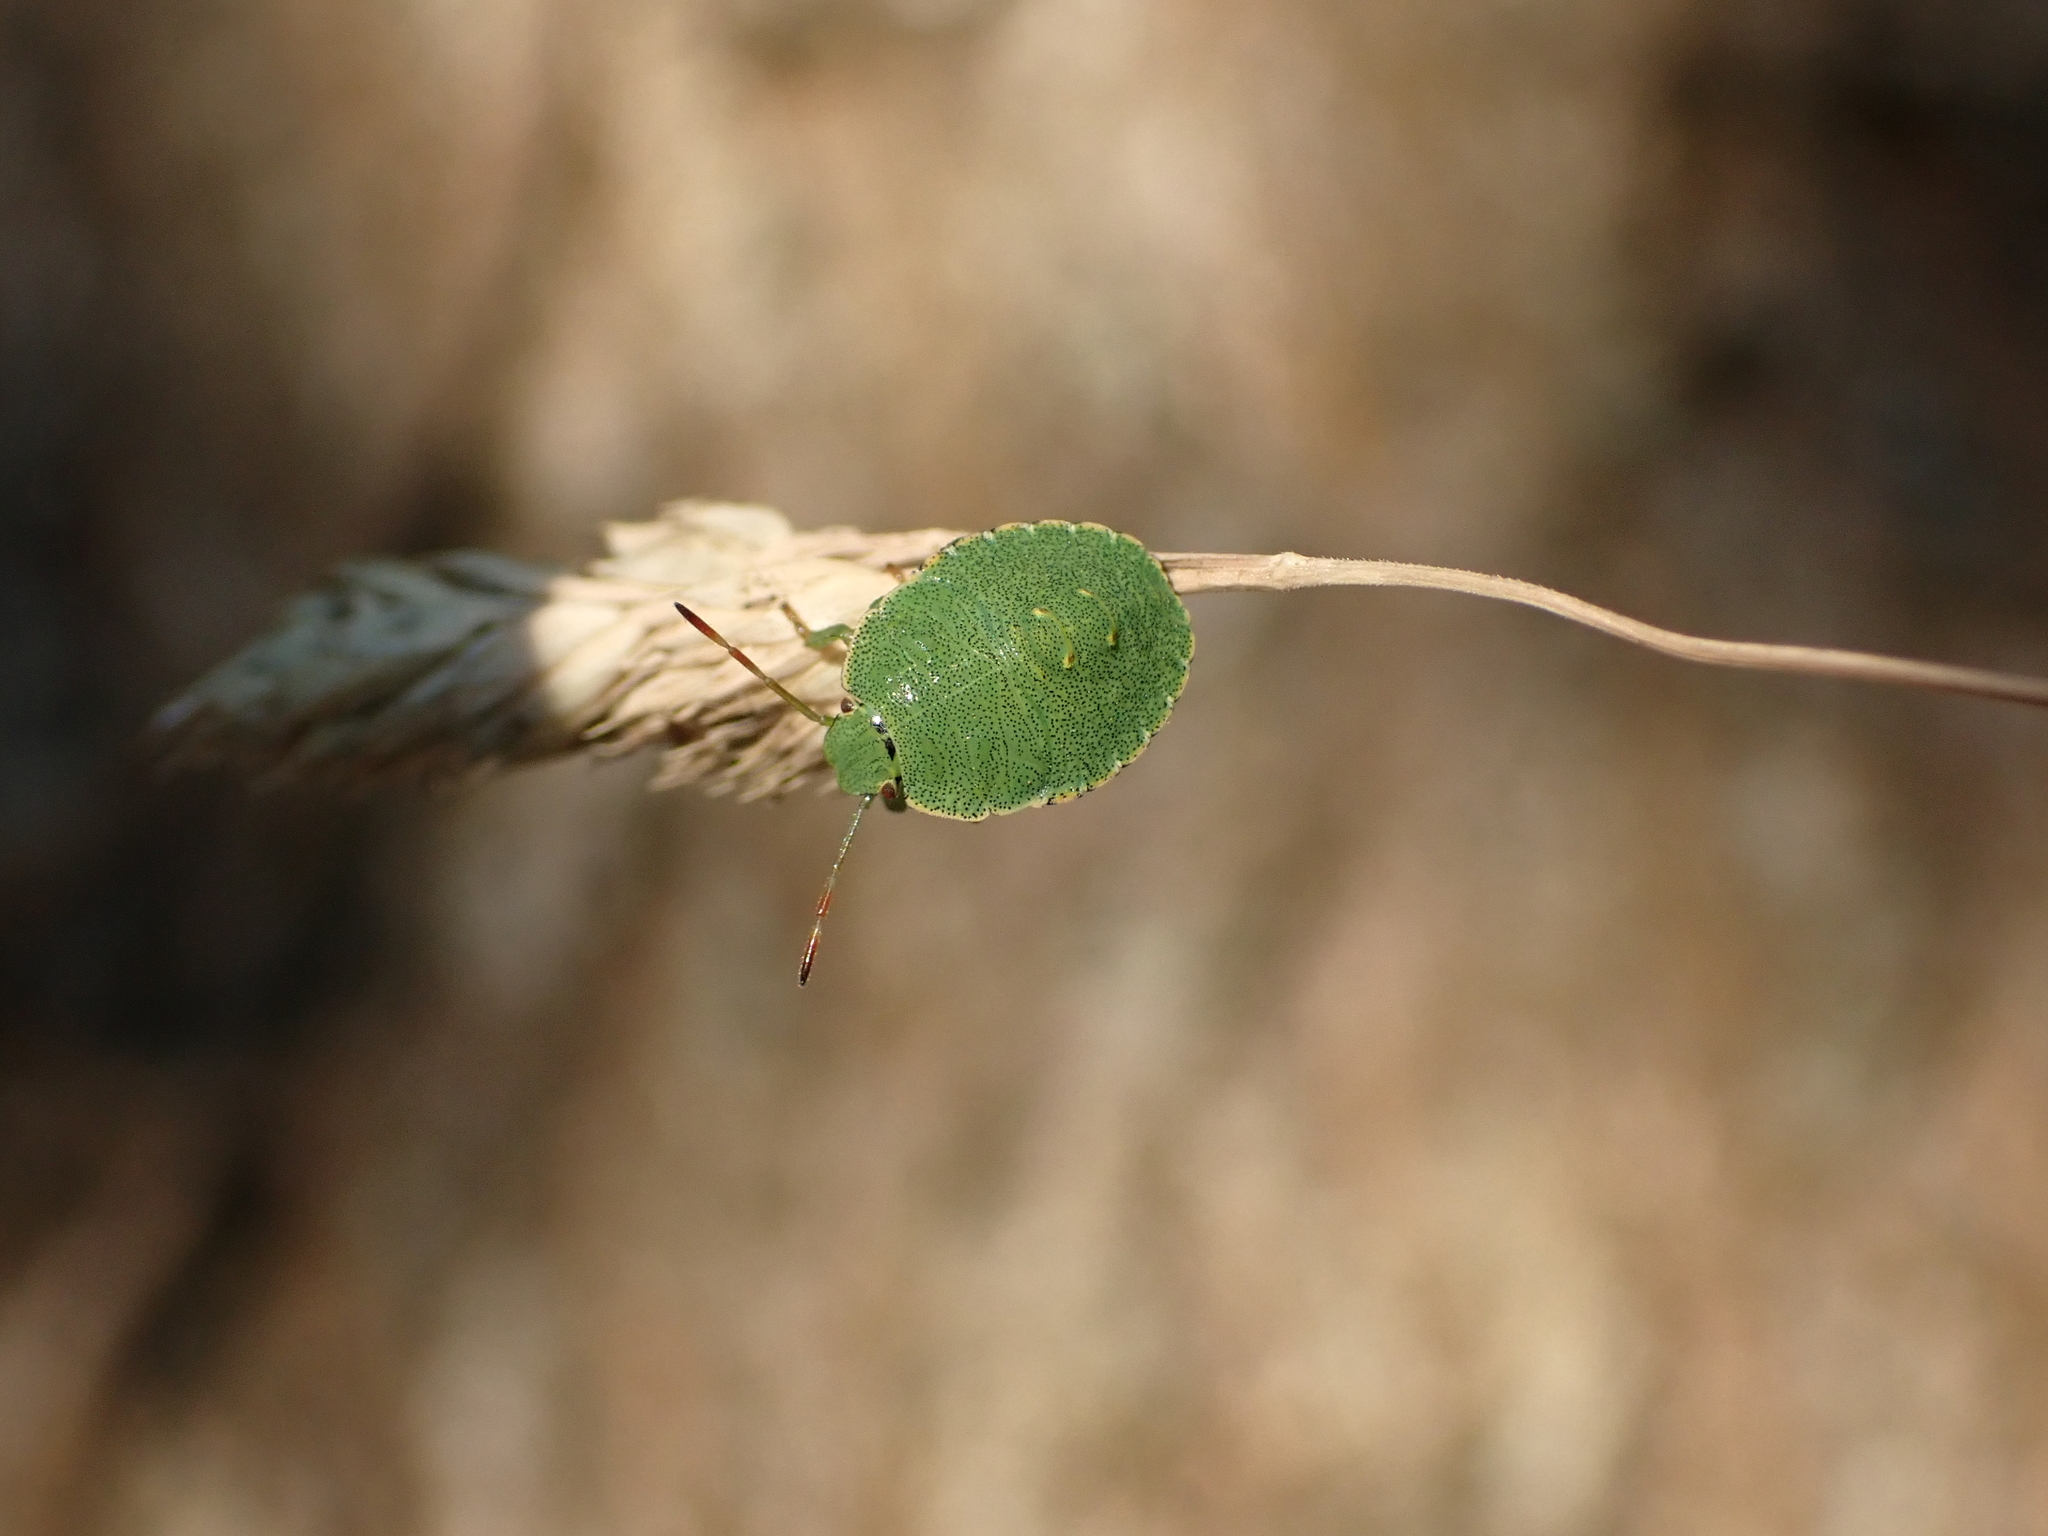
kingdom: Animalia
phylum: Arthropoda
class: Insecta
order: Hemiptera
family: Pentatomidae
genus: Palomena
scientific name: Palomena prasina
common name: Green shieldbug
